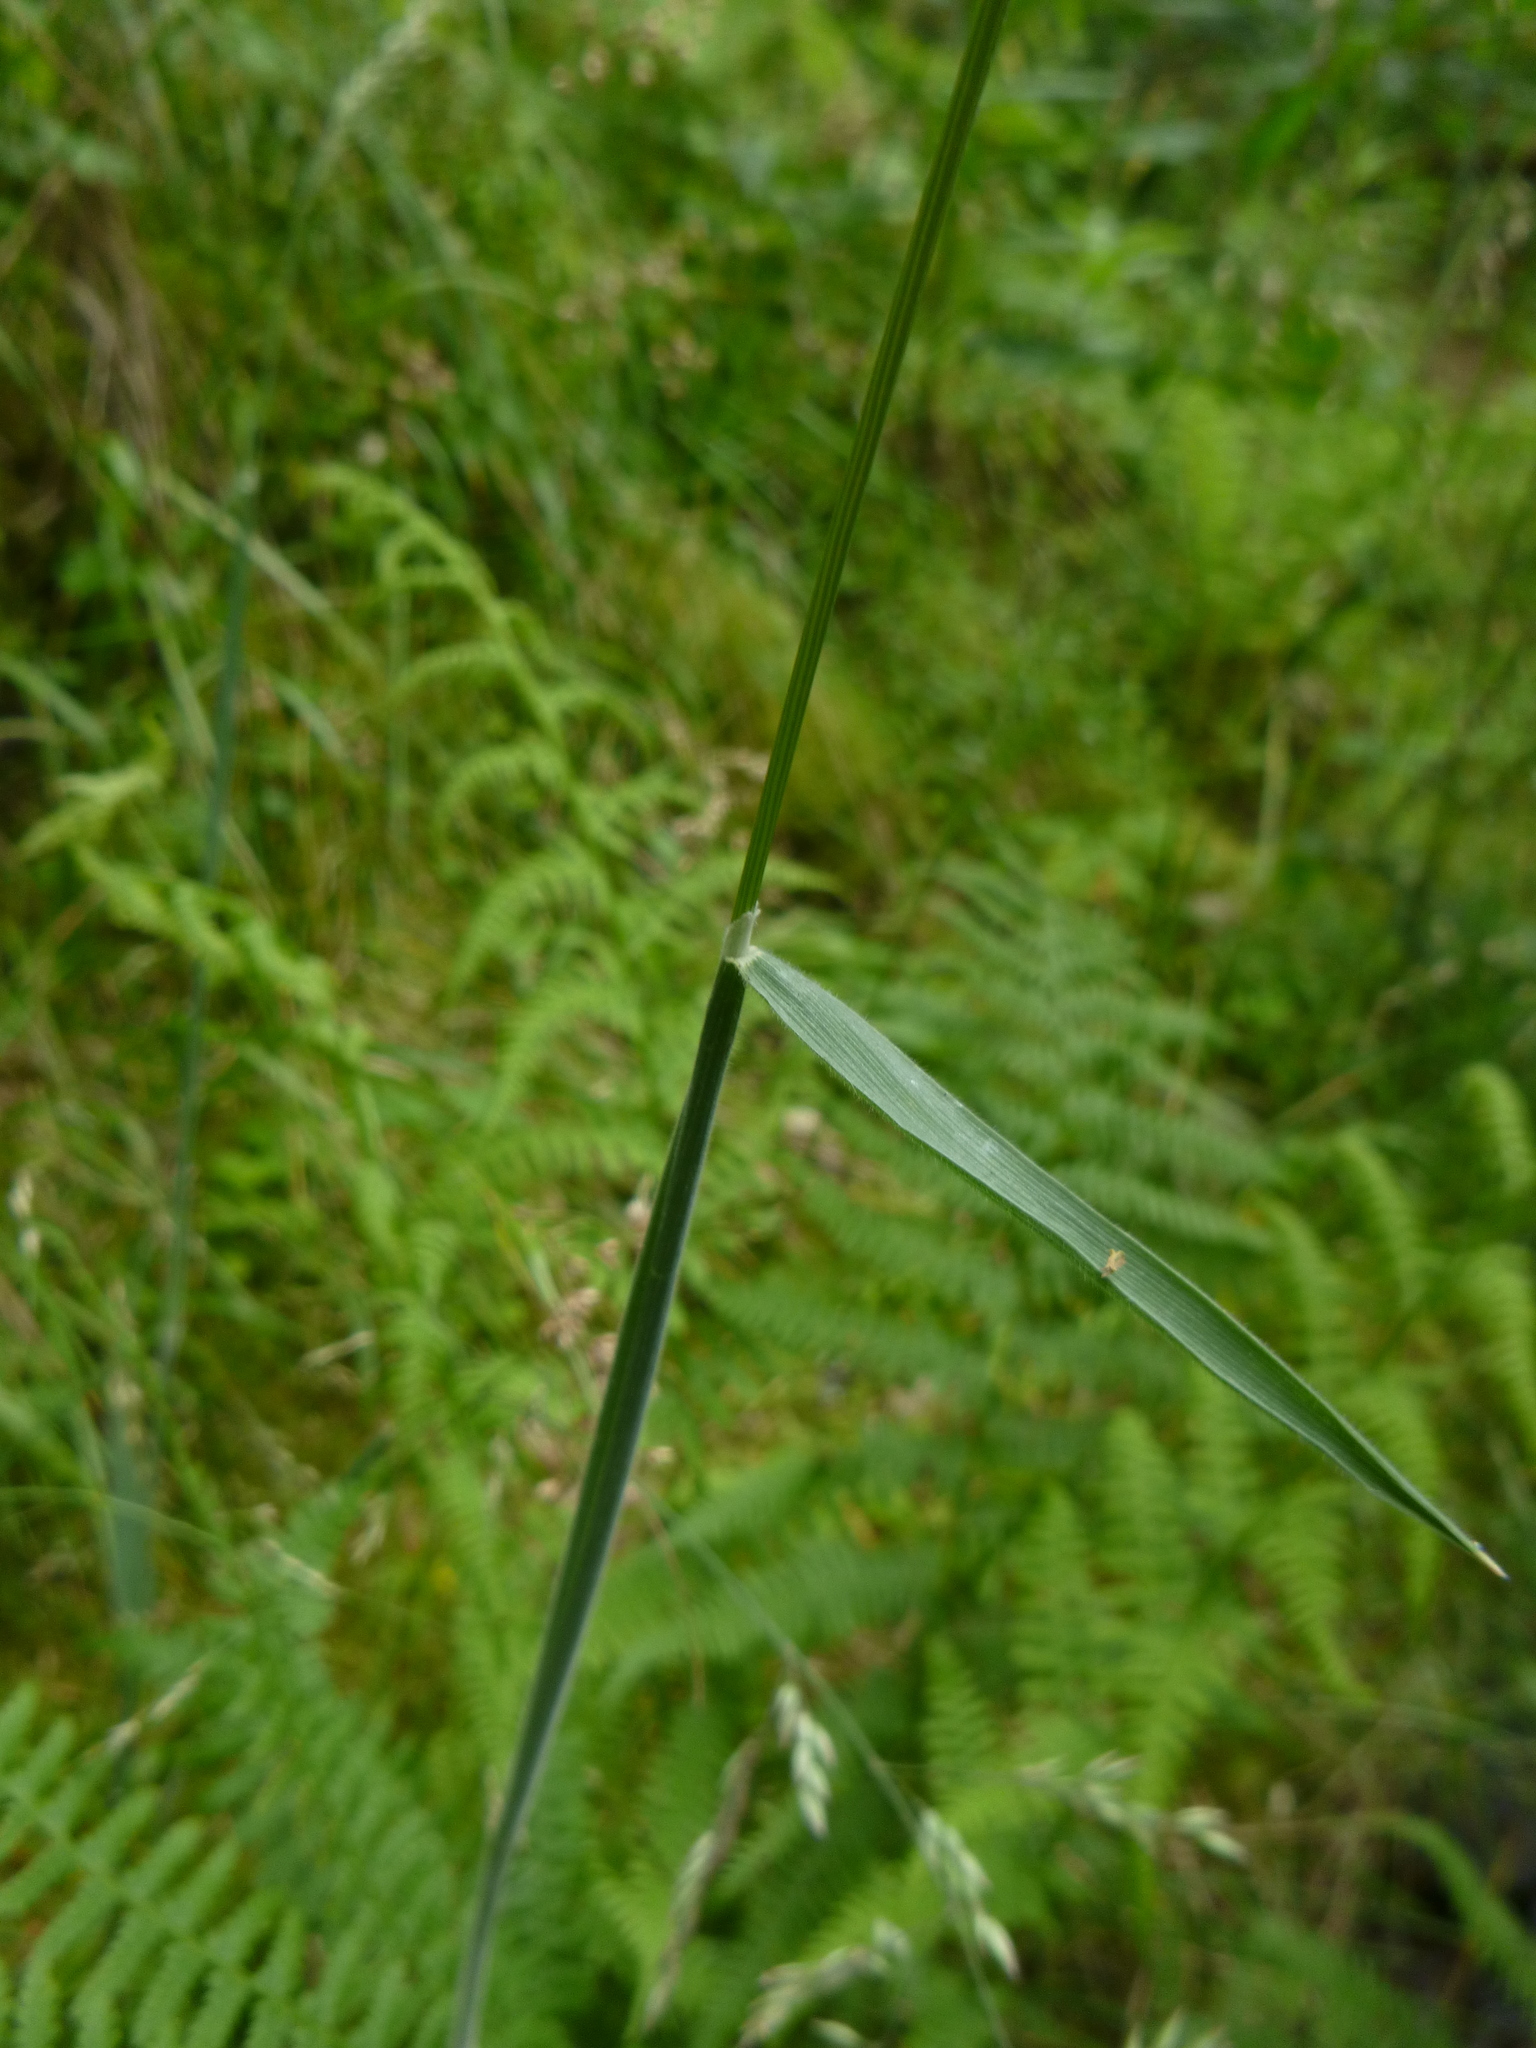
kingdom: Plantae
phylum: Tracheophyta
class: Liliopsida
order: Poales
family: Poaceae
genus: Holcus
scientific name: Holcus lanatus
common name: Yorkshire-fog
